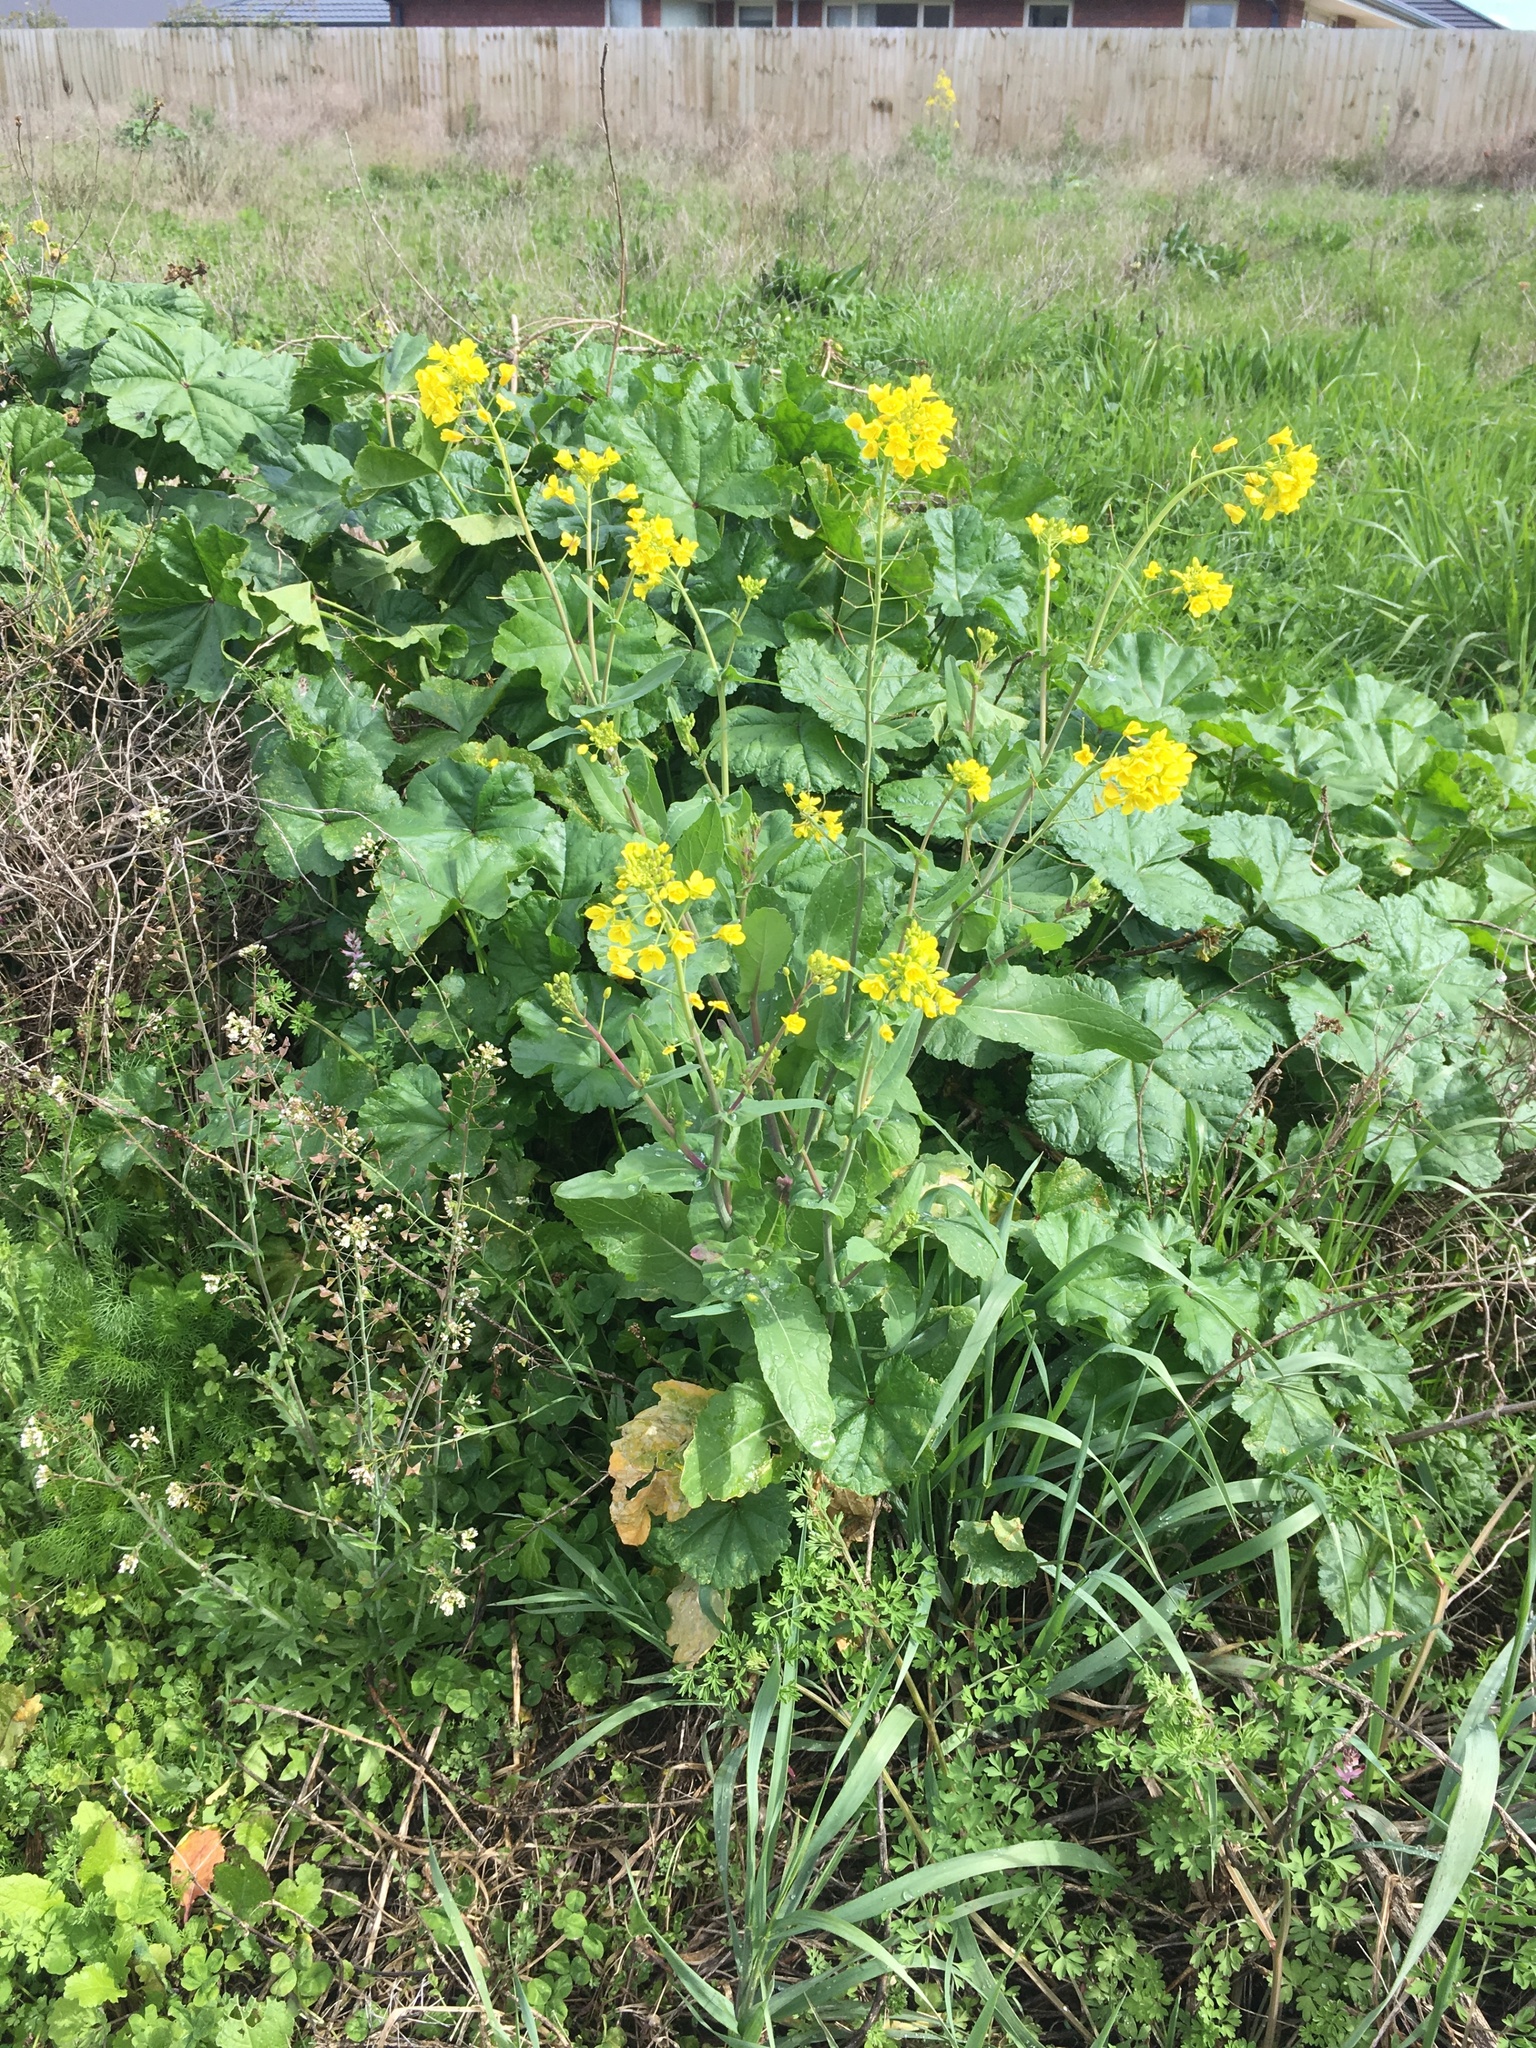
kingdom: Plantae
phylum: Tracheophyta
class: Magnoliopsida
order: Brassicales
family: Brassicaceae
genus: Brassica
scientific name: Brassica rapa
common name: Field mustard
